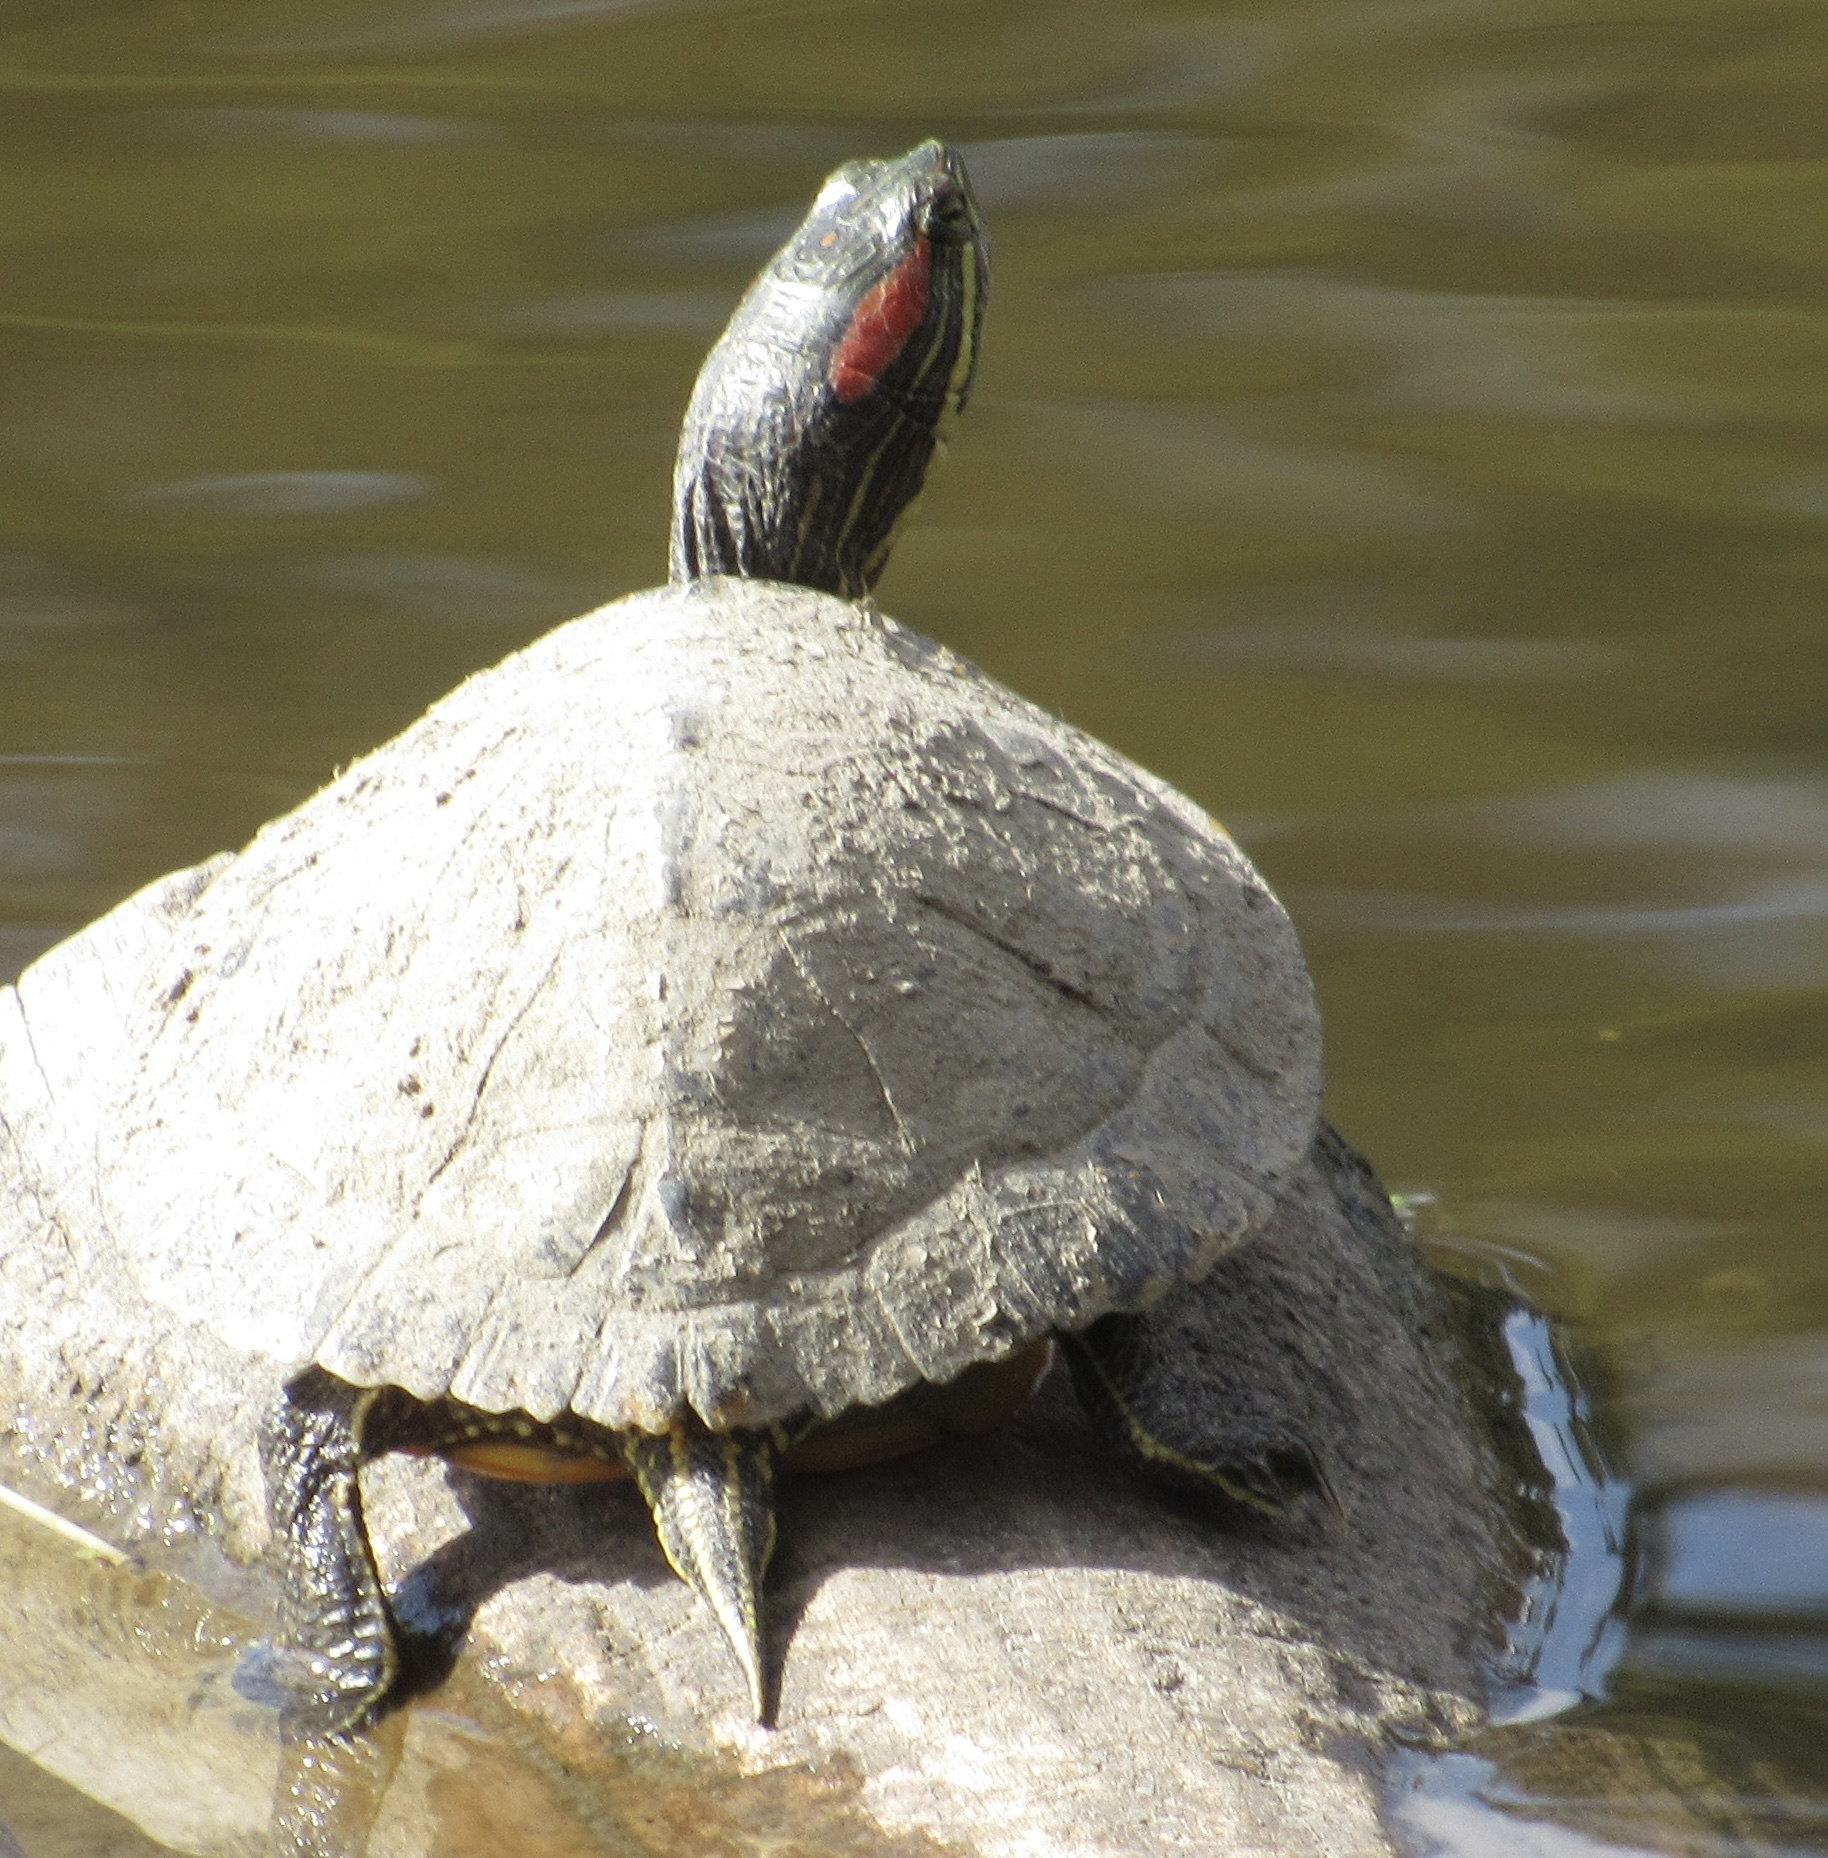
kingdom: Animalia
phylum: Chordata
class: Testudines
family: Emydidae
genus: Trachemys
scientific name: Trachemys scripta
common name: Slider
